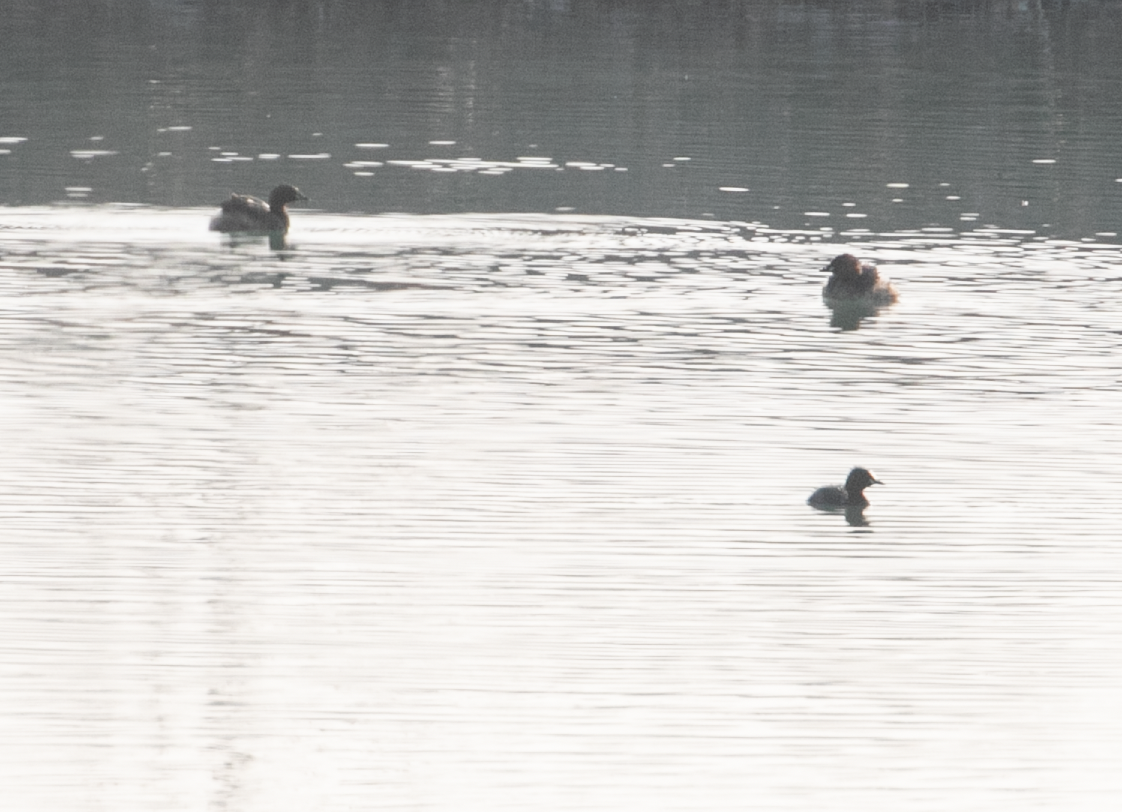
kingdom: Animalia
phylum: Chordata
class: Aves
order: Podicipediformes
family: Podicipedidae
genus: Tachybaptus
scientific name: Tachybaptus ruficollis
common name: Little grebe
